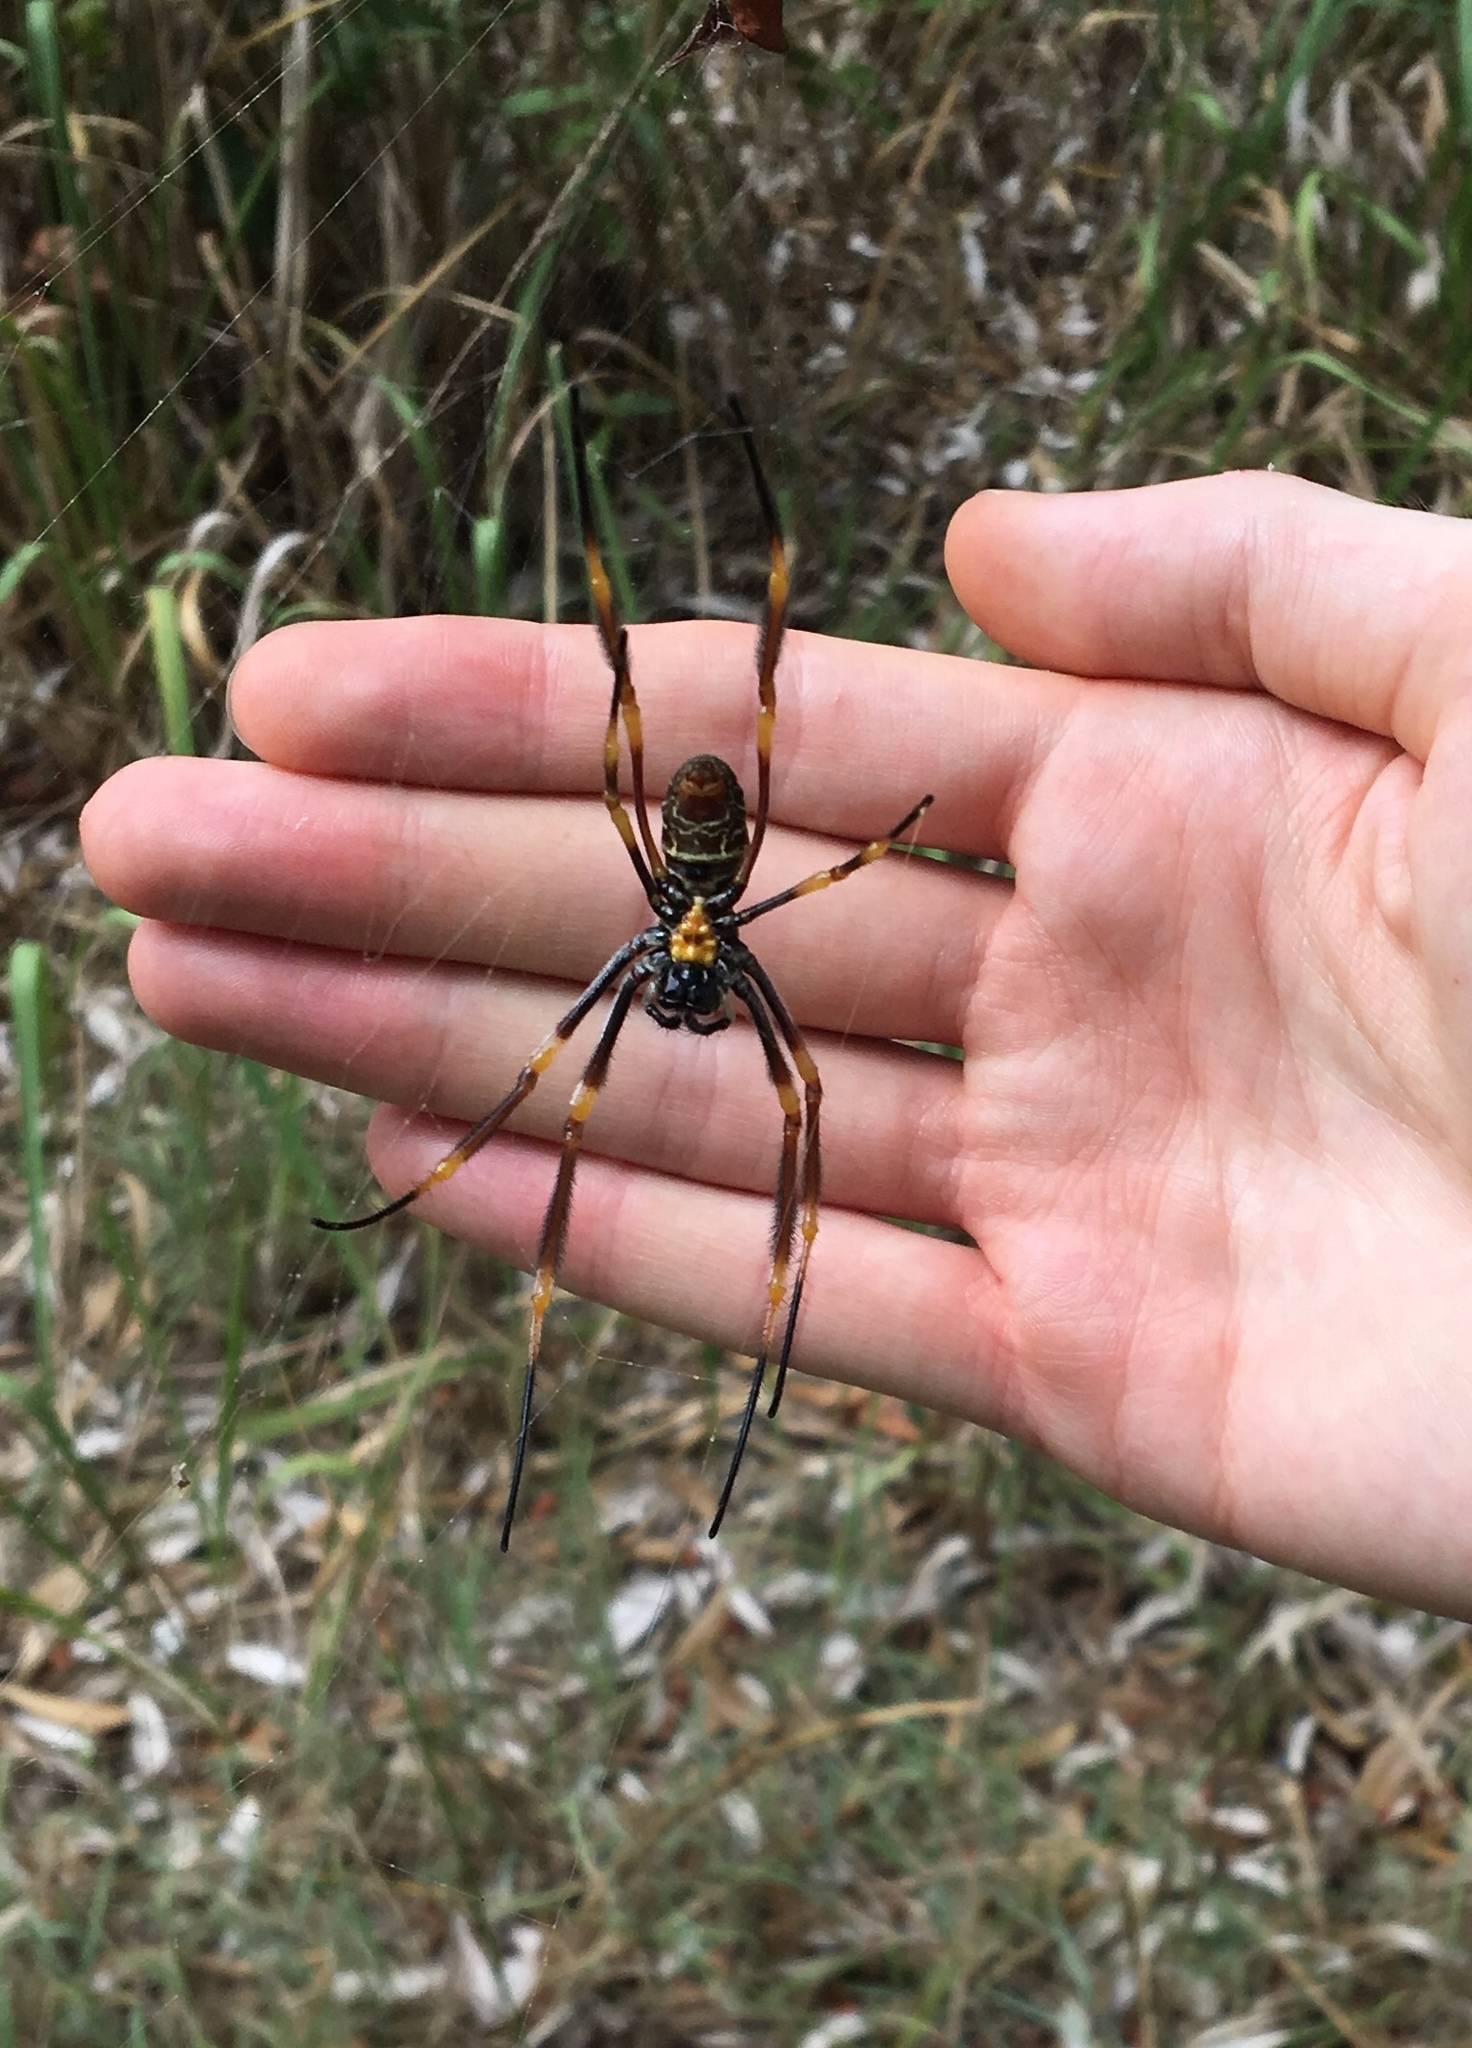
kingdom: Animalia
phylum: Arthropoda
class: Arachnida
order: Araneae
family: Araneidae
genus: Trichonephila
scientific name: Trichonephila plumipes
